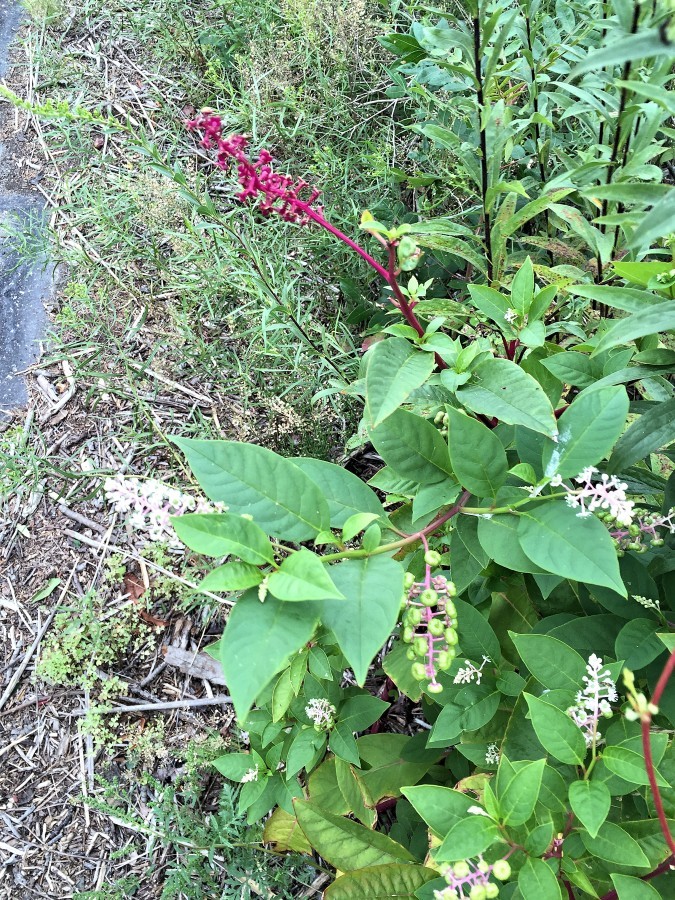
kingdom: Plantae
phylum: Tracheophyta
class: Magnoliopsida
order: Caryophyllales
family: Phytolaccaceae
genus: Phytolacca
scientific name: Phytolacca americana
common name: American pokeweed
